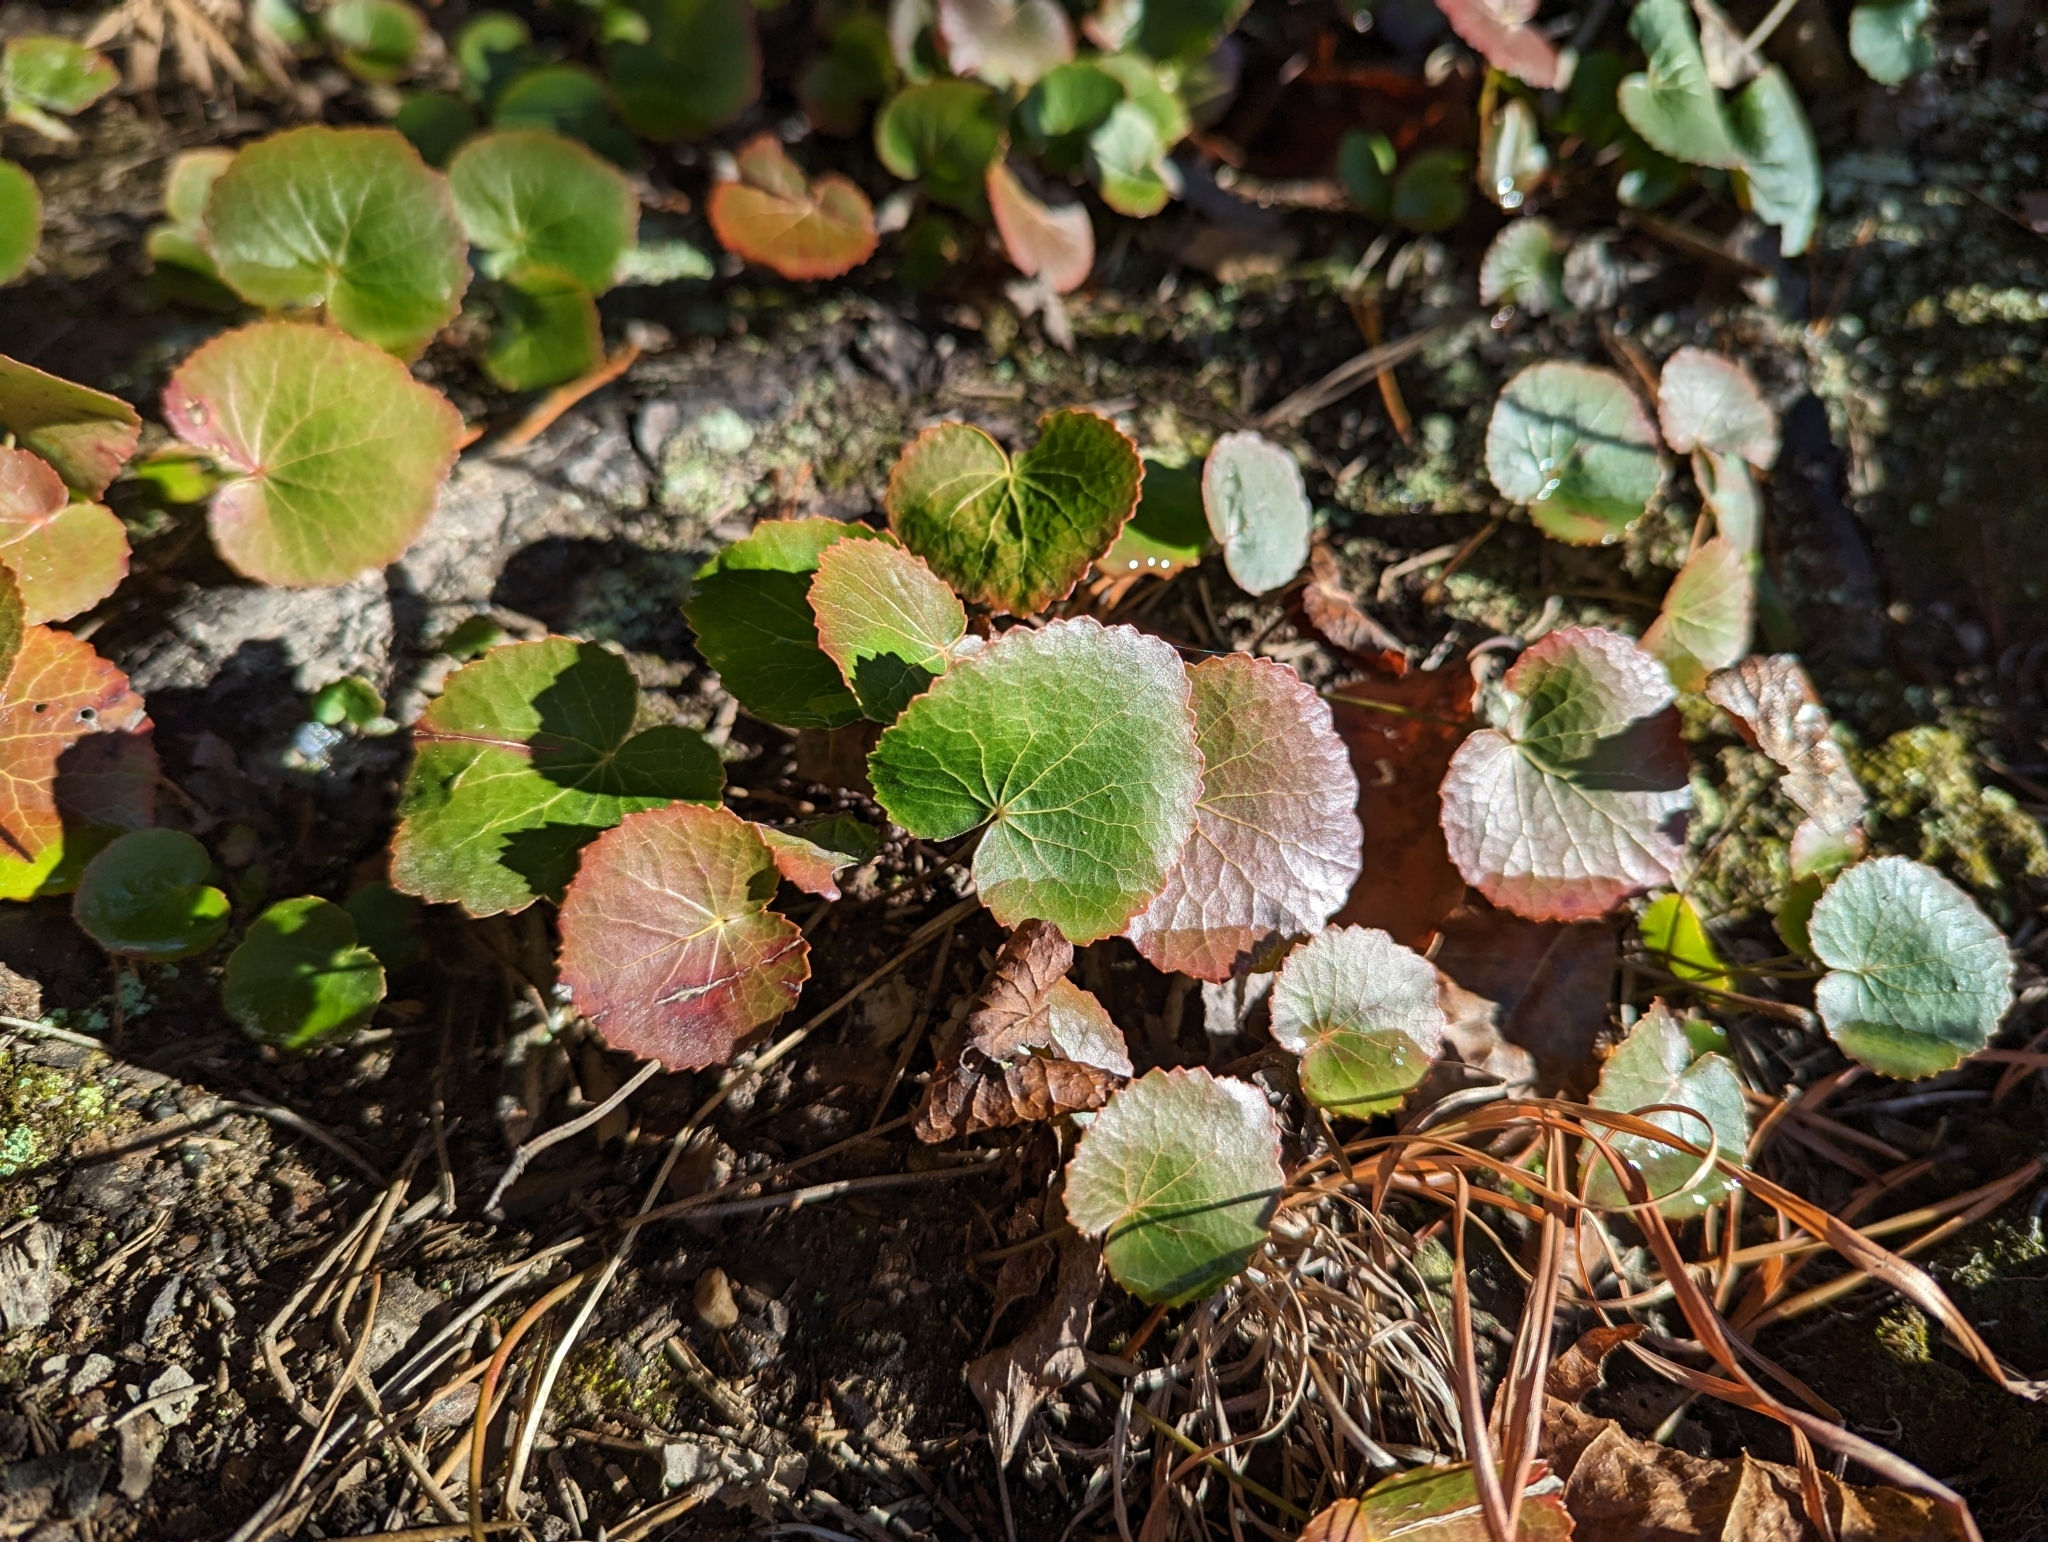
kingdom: Plantae
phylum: Tracheophyta
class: Magnoliopsida
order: Ericales
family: Diapensiaceae
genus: Galax
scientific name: Galax urceolata
